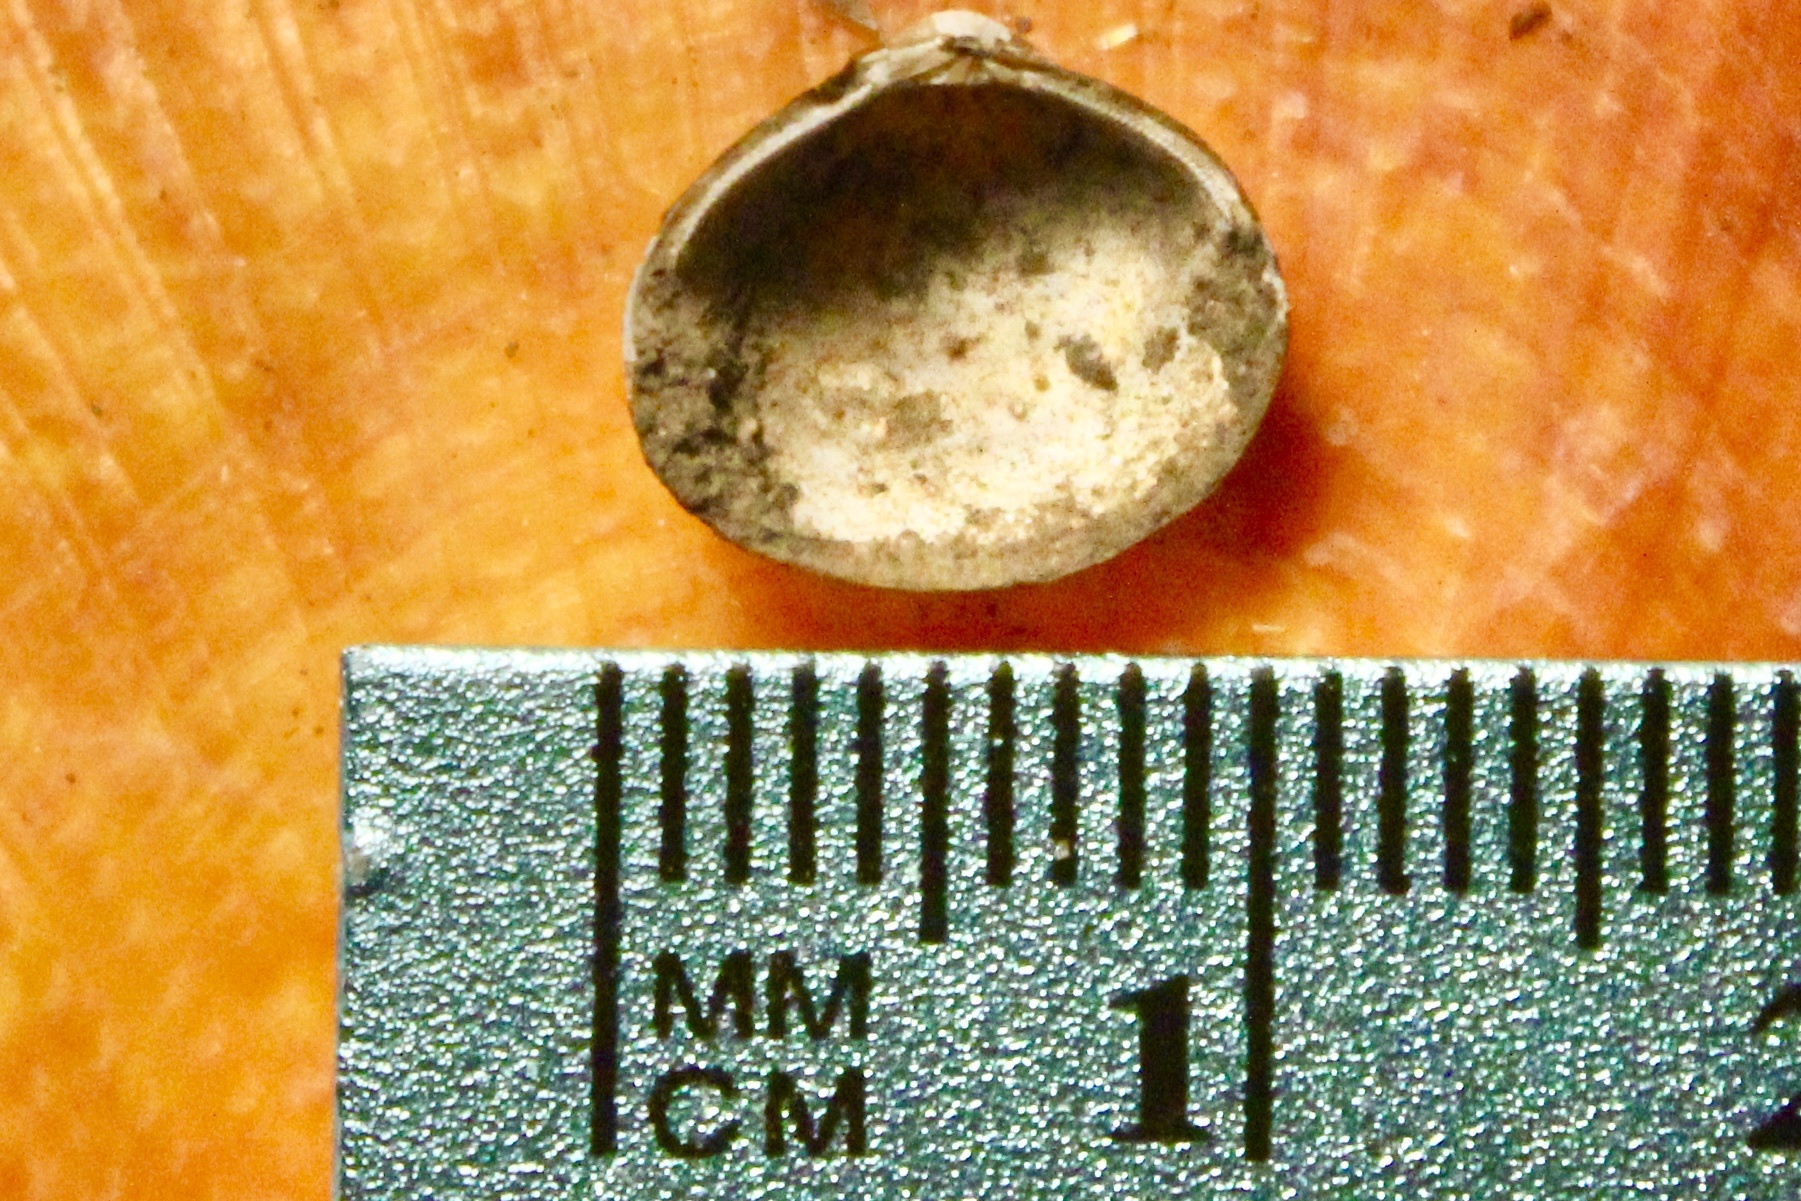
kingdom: Animalia
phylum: Mollusca
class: Bivalvia
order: Venerida
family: Cyrenidae
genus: Corbicula
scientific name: Corbicula fluminea
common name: Asian clam
